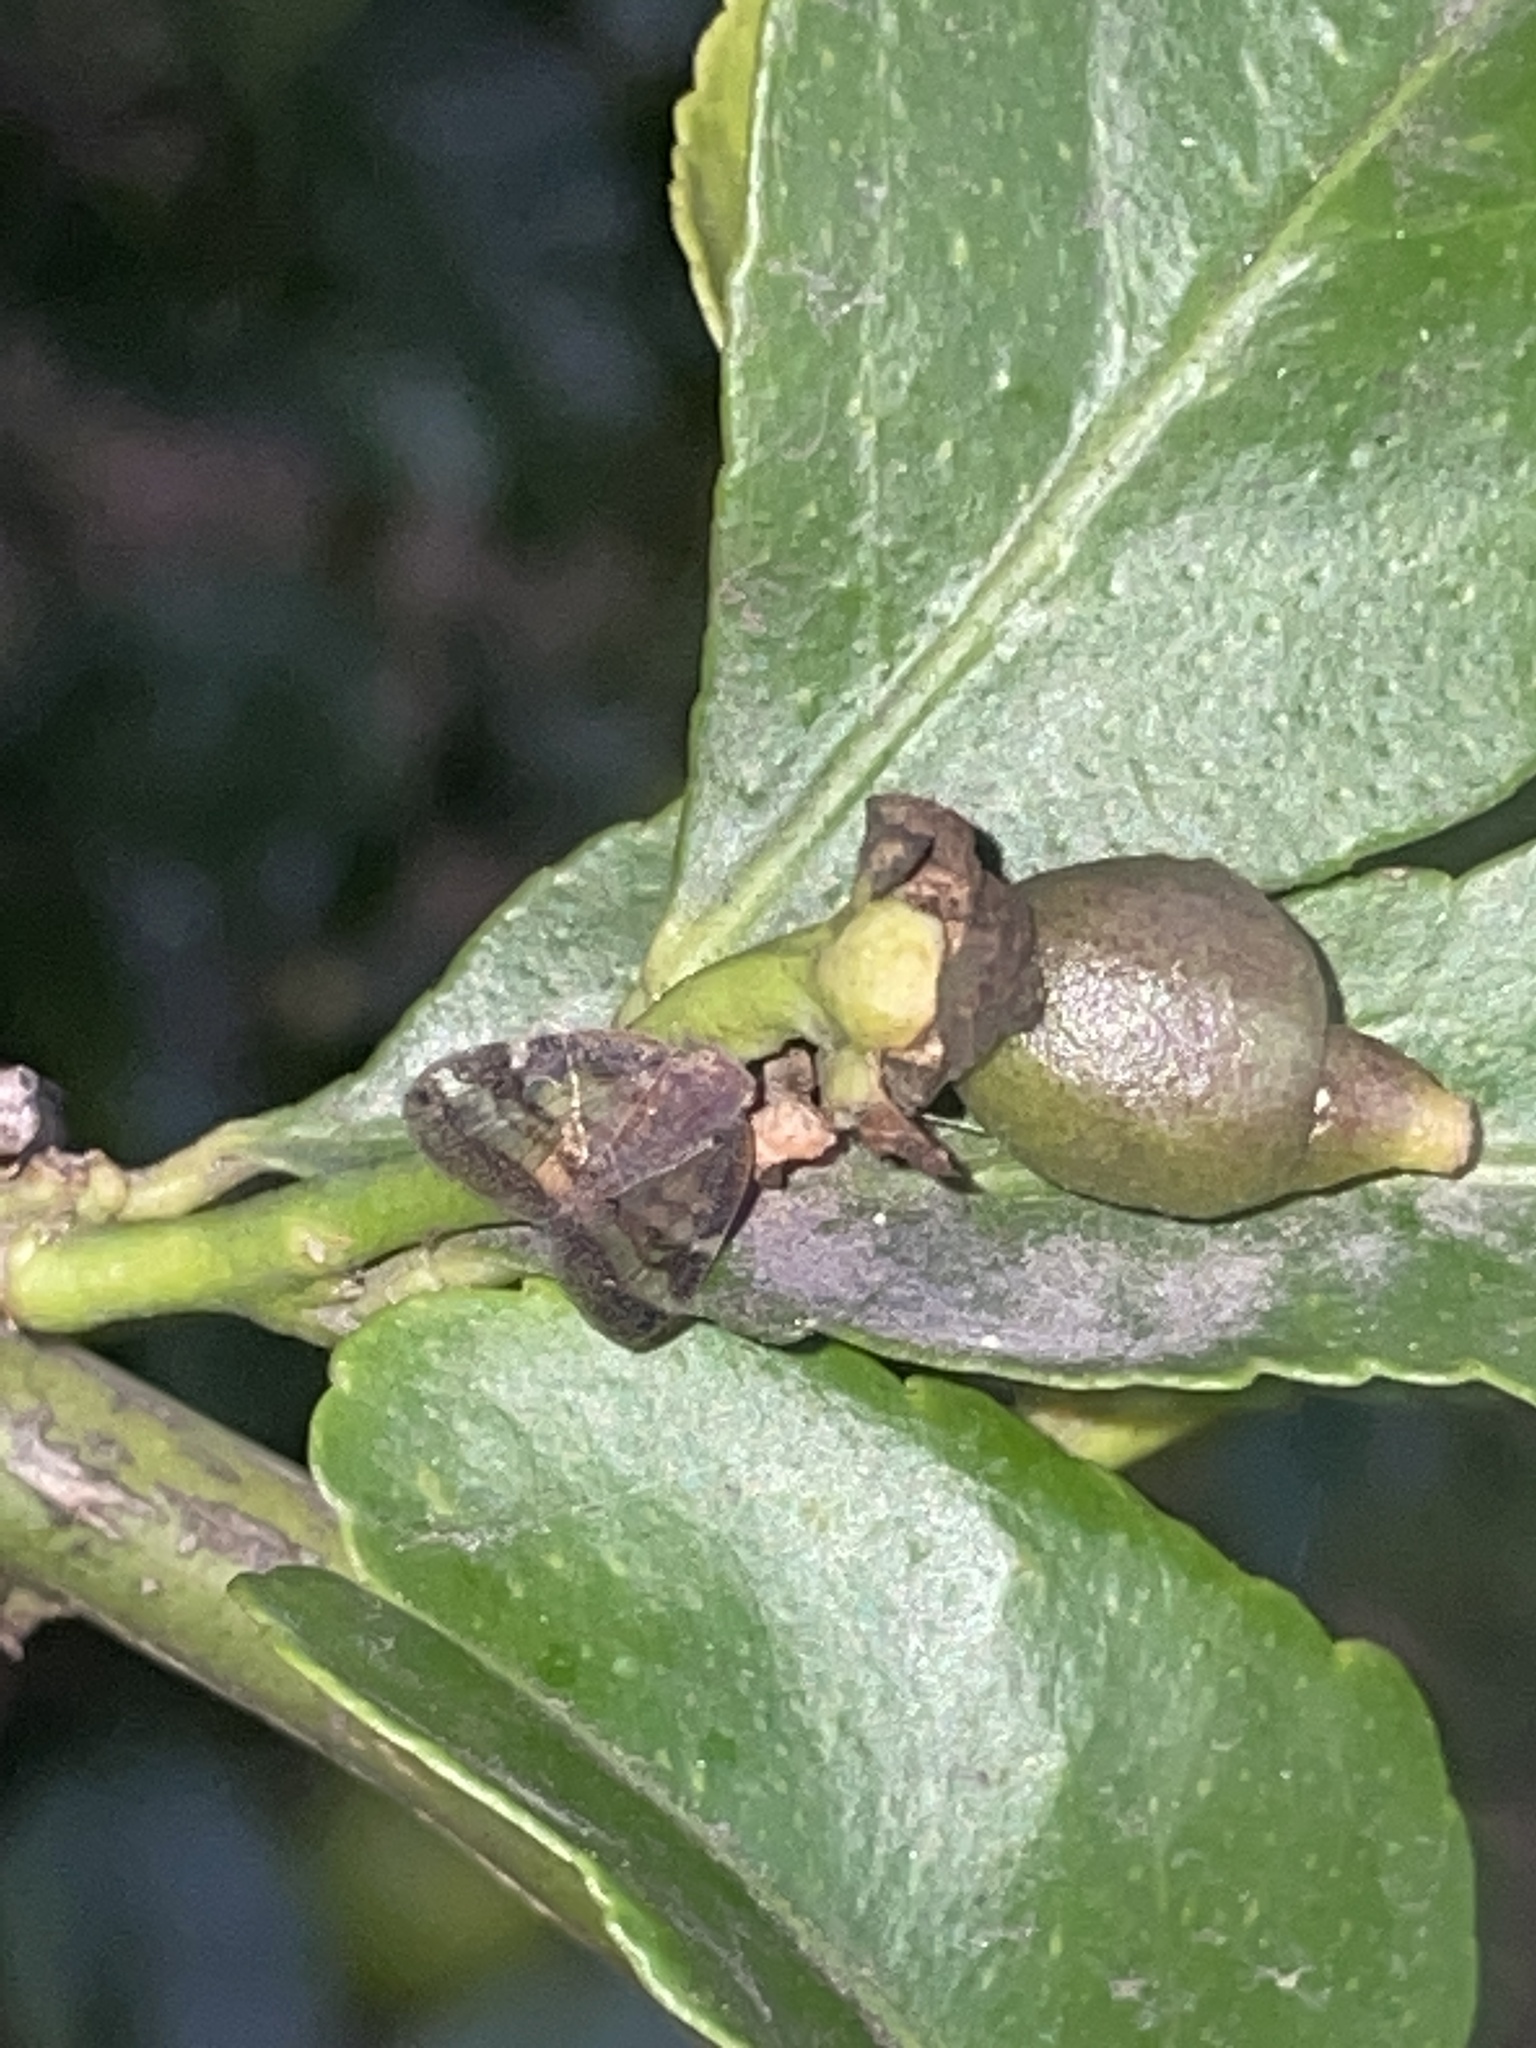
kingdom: Animalia
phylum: Arthropoda
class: Insecta
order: Hemiptera
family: Ricaniidae
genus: Scolypopa
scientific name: Scolypopa australis
